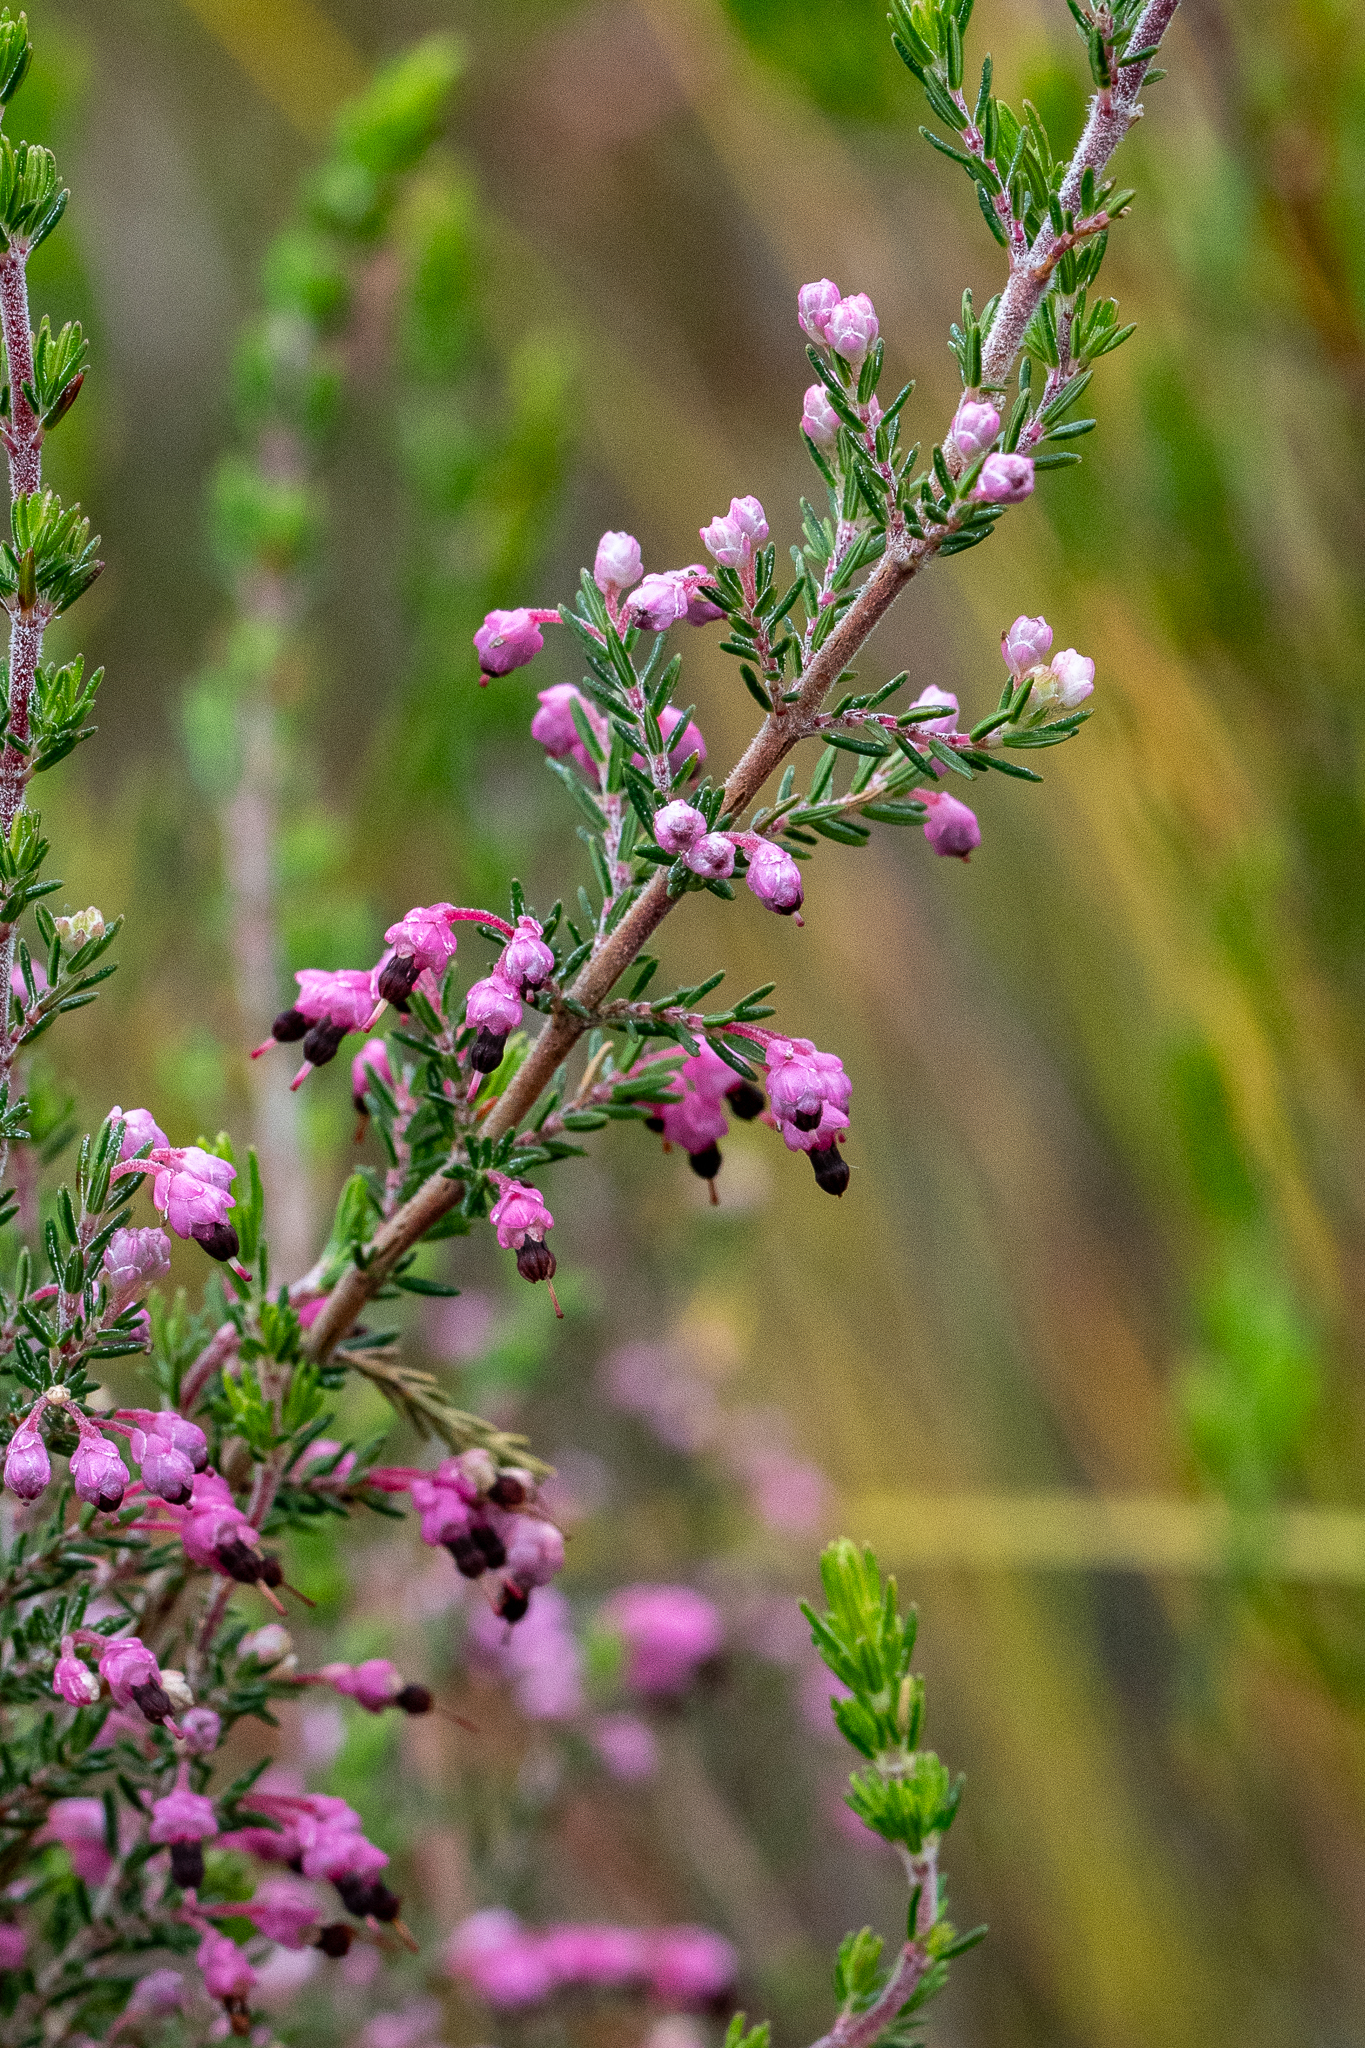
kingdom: Plantae
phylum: Tracheophyta
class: Magnoliopsida
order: Ericales
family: Ericaceae
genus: Erica
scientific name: Erica placentiflora
